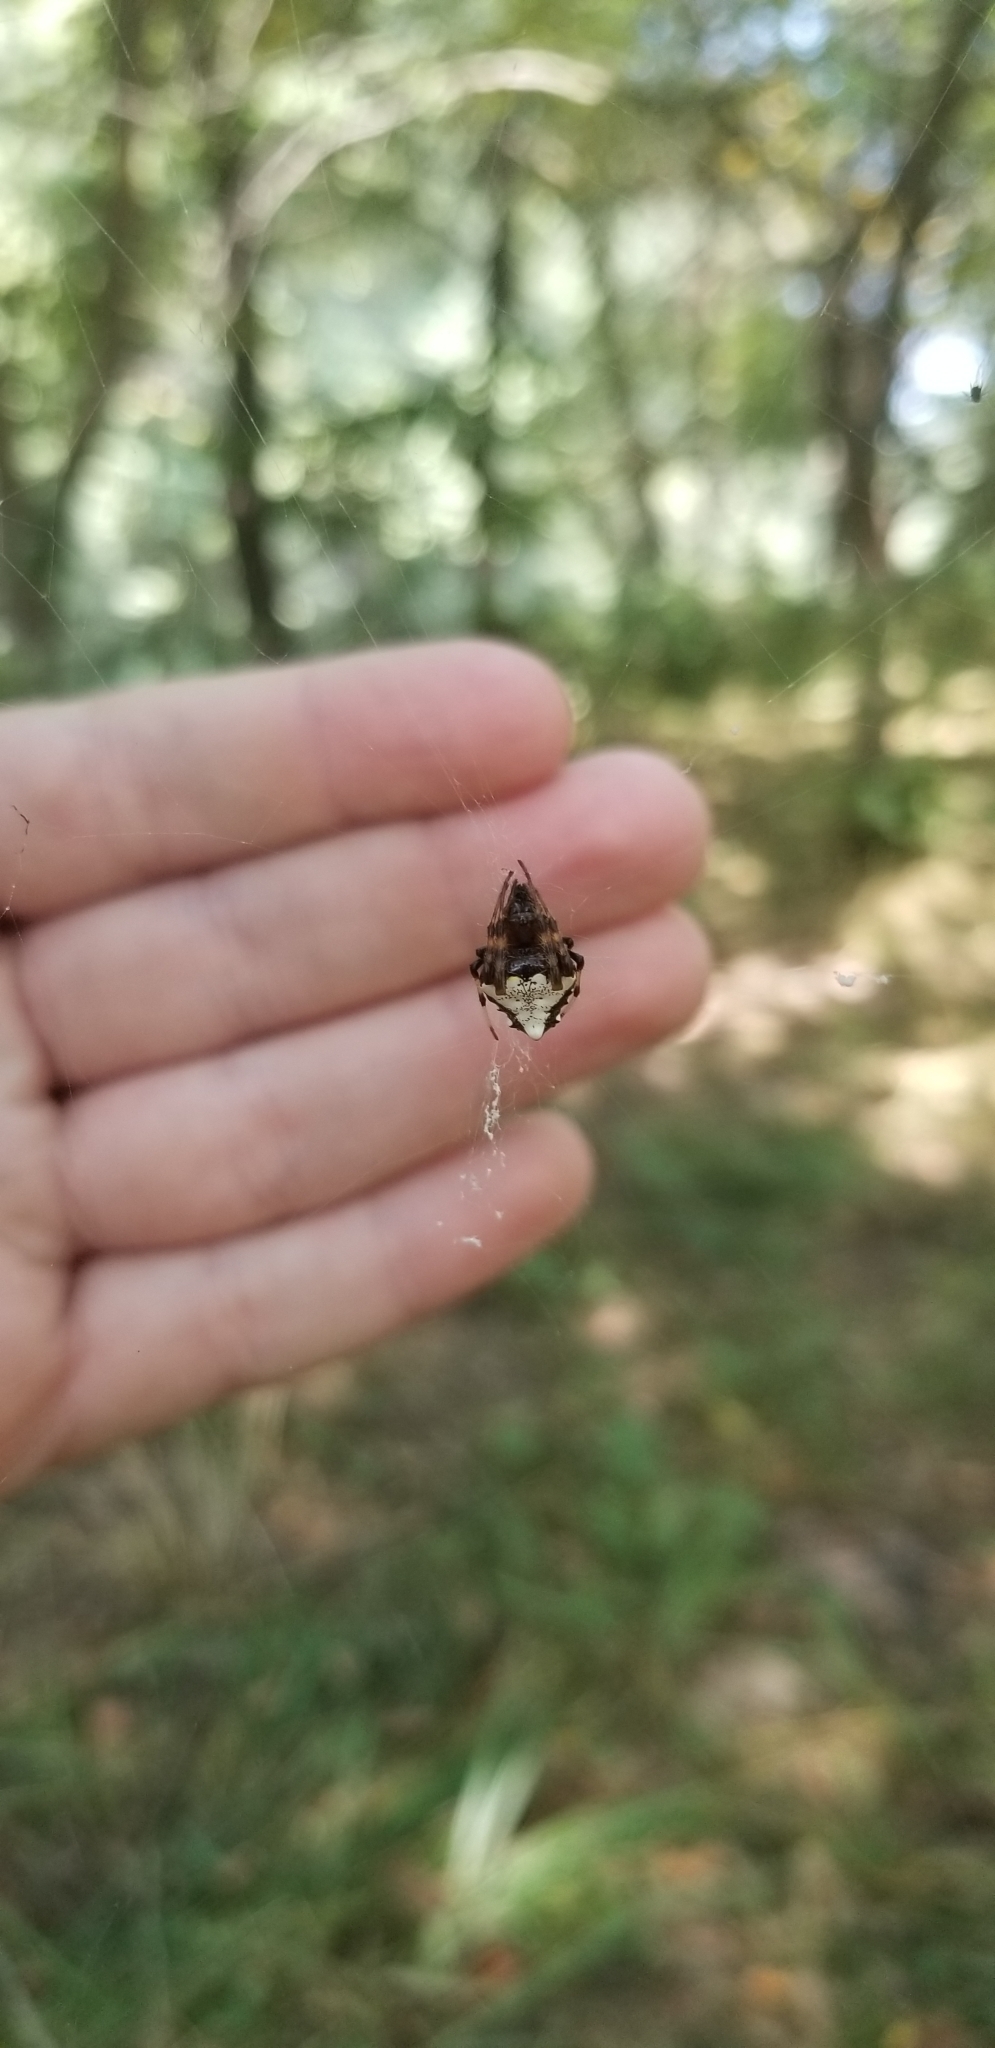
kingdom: Animalia
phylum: Arthropoda
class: Arachnida
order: Araneae
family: Araneidae
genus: Verrucosa
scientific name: Verrucosa arenata
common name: Orb weavers
